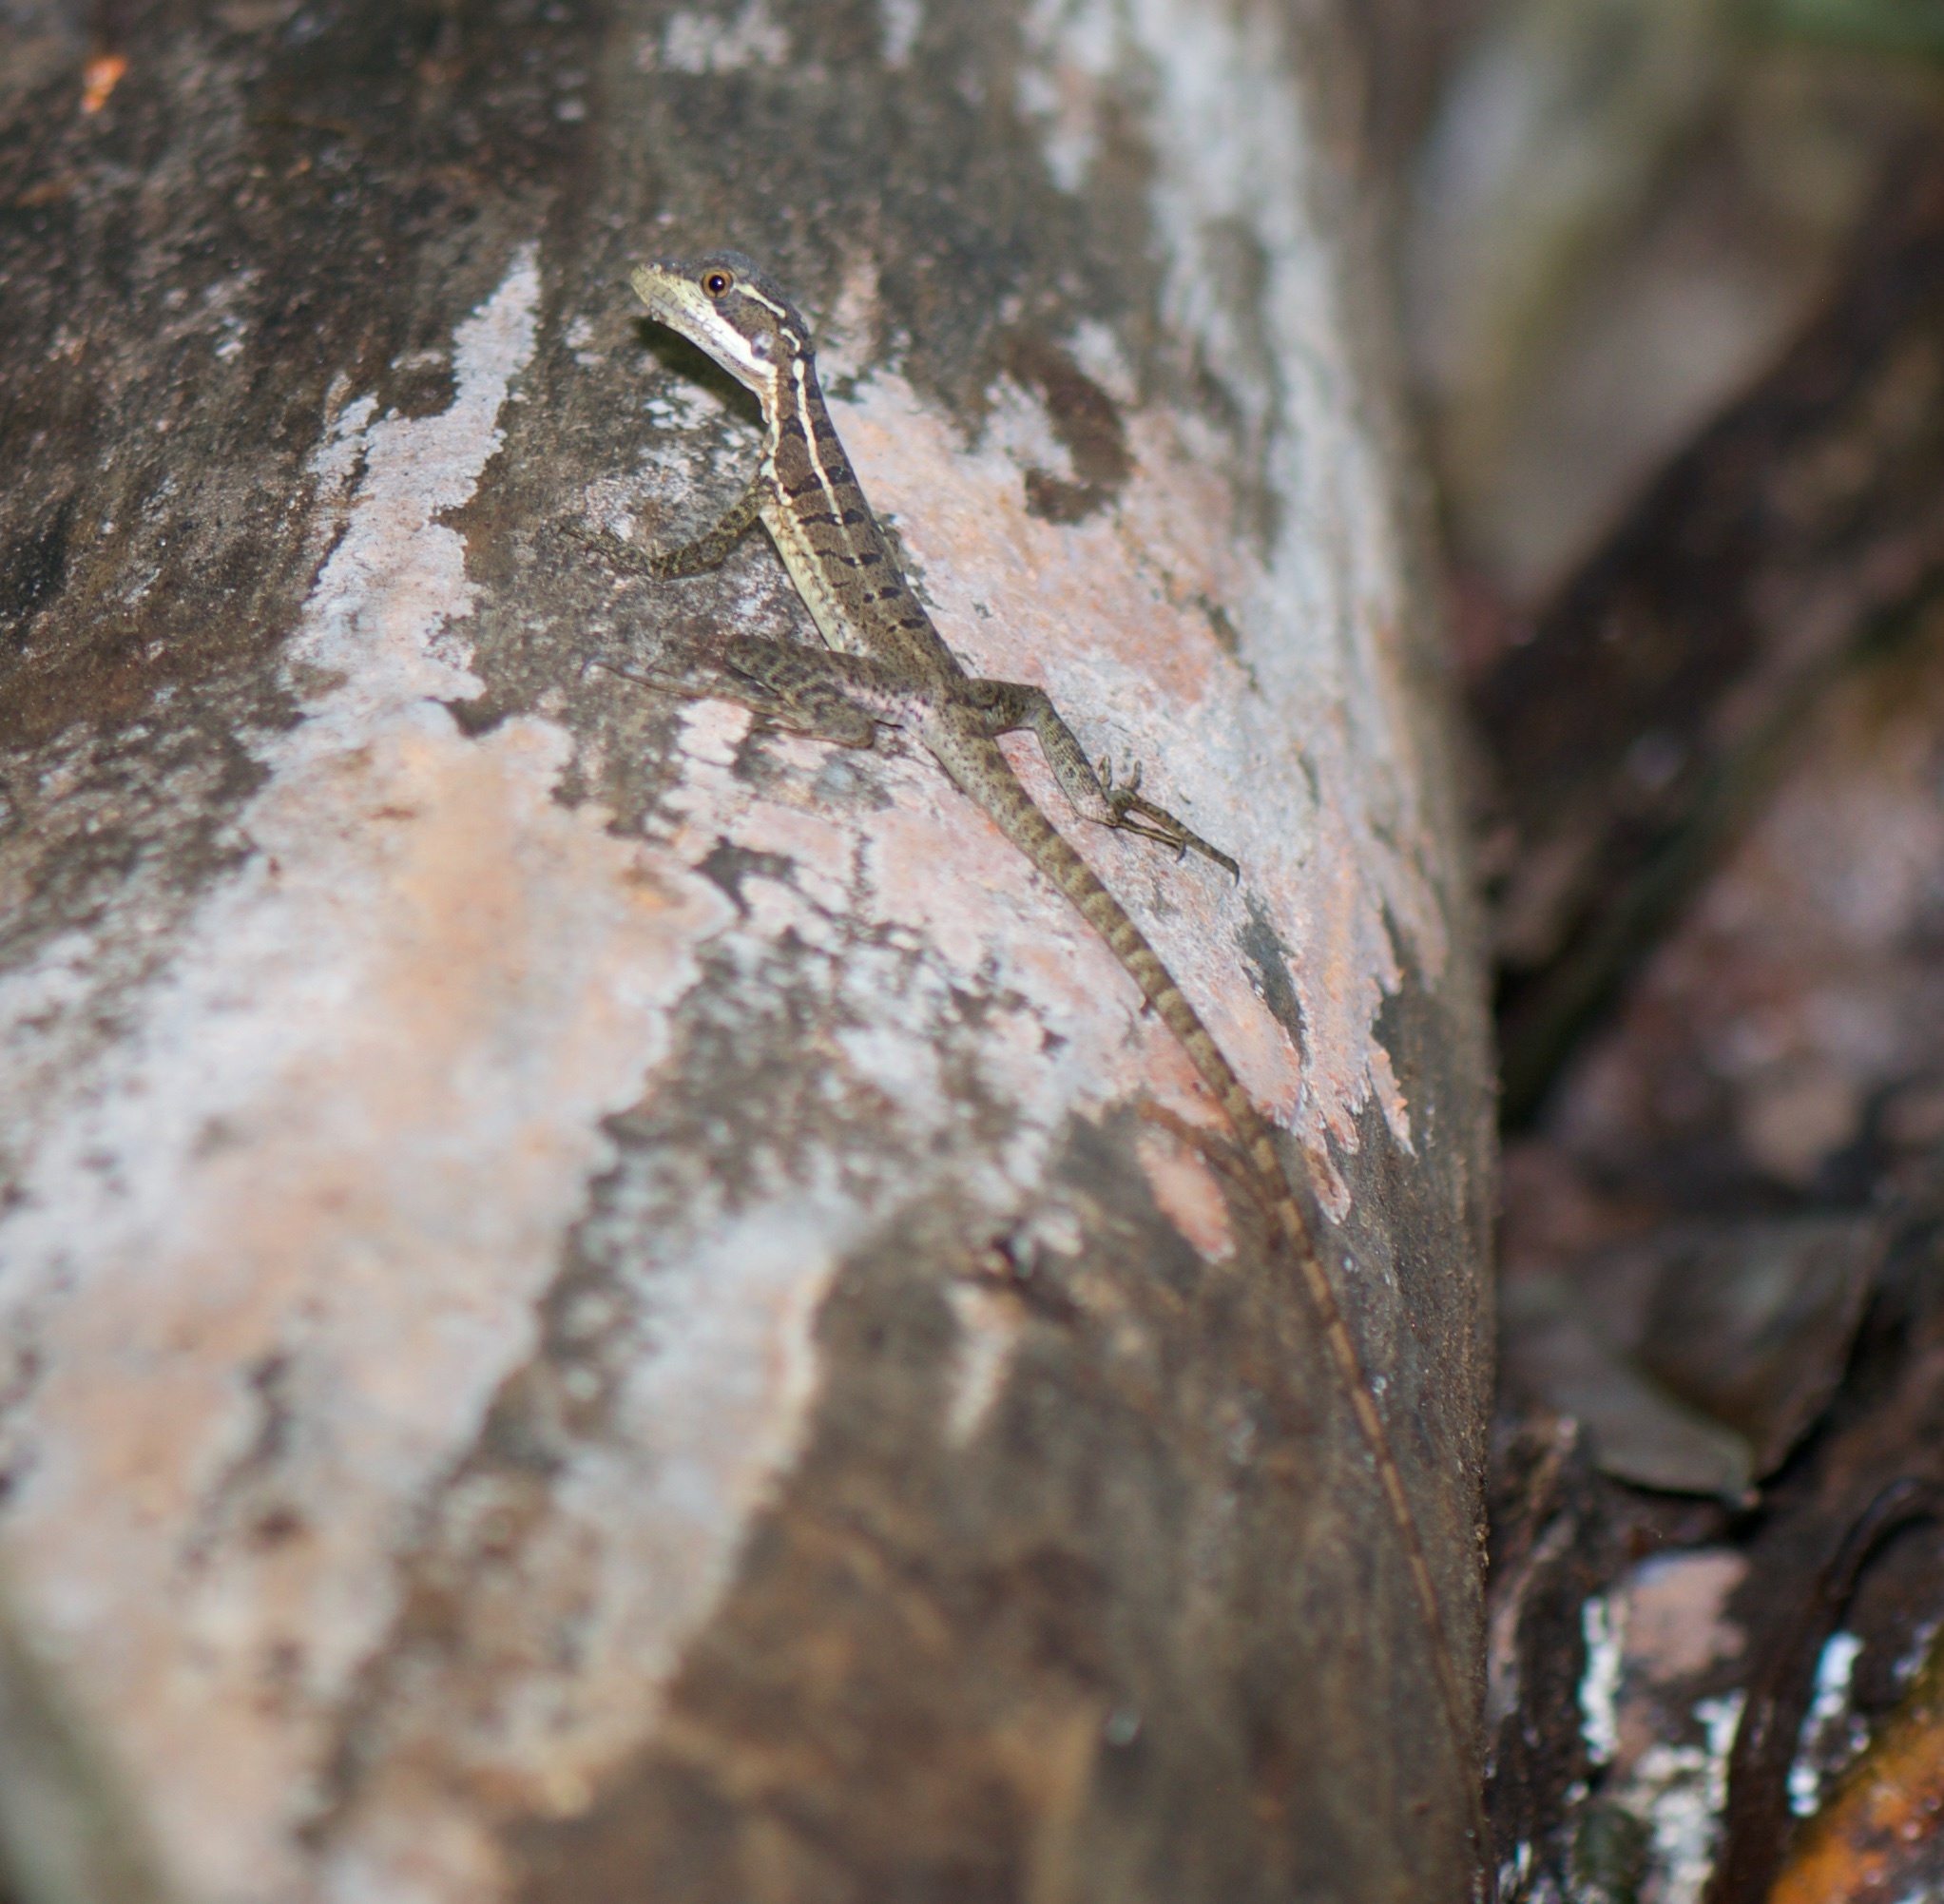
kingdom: Animalia
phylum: Chordata
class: Squamata
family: Corytophanidae
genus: Basiliscus
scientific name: Basiliscus basiliscus
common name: Common basilisk
